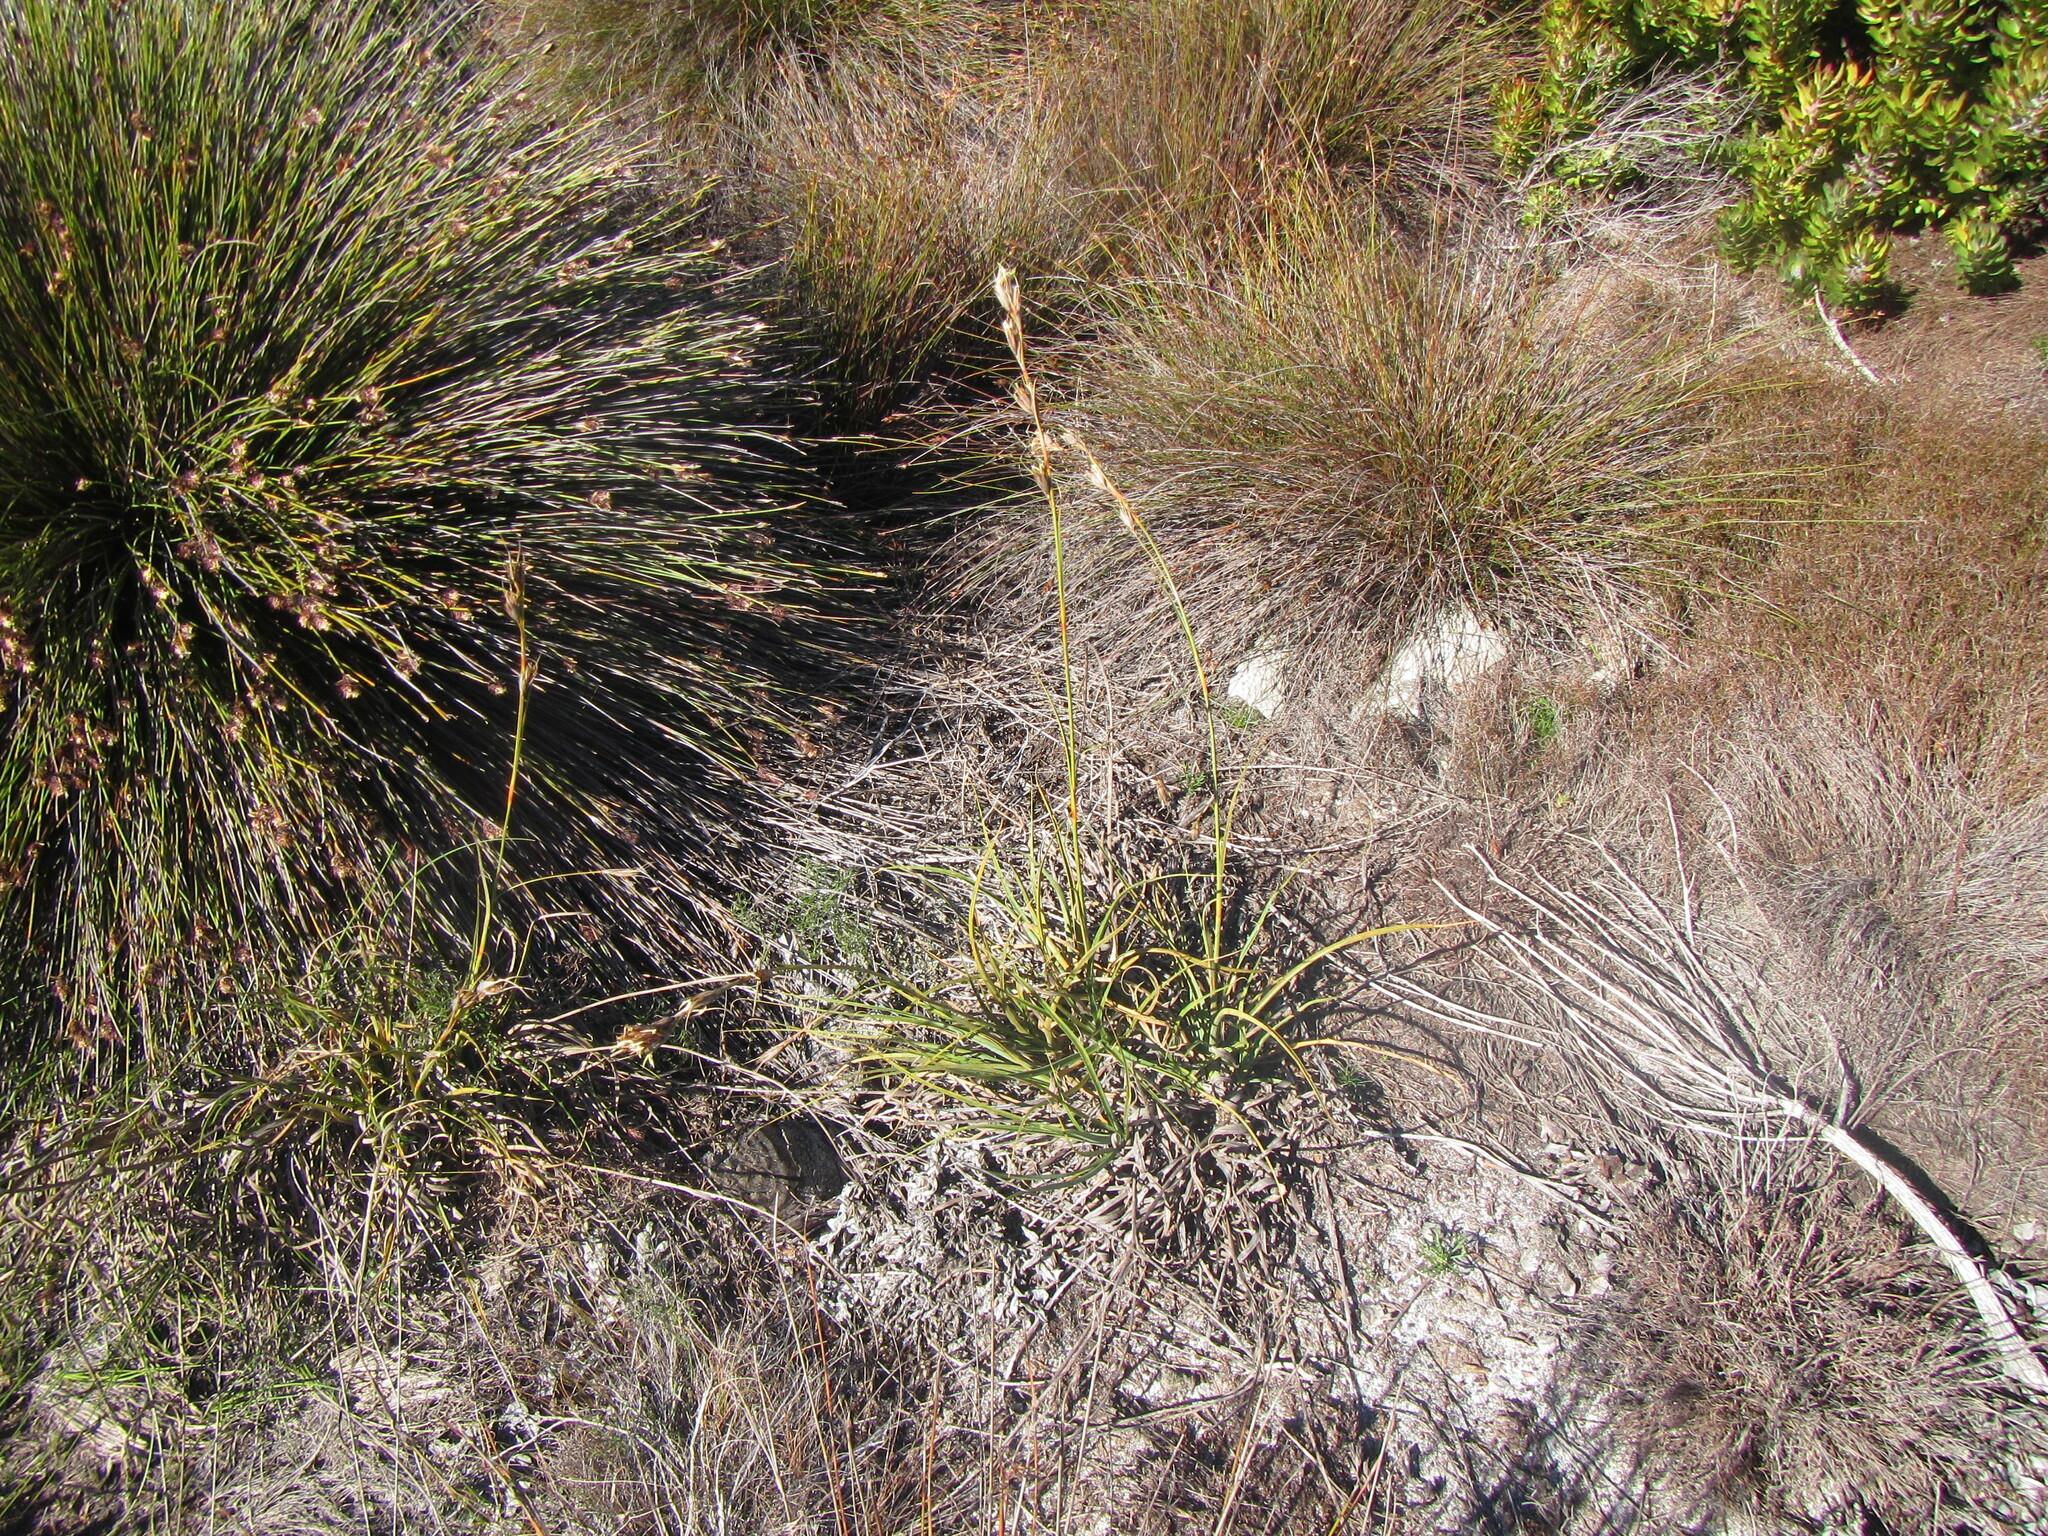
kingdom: Plantae
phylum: Tracheophyta
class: Liliopsida
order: Poales
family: Cyperaceae
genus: Tetraria
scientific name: Tetraria eximia
